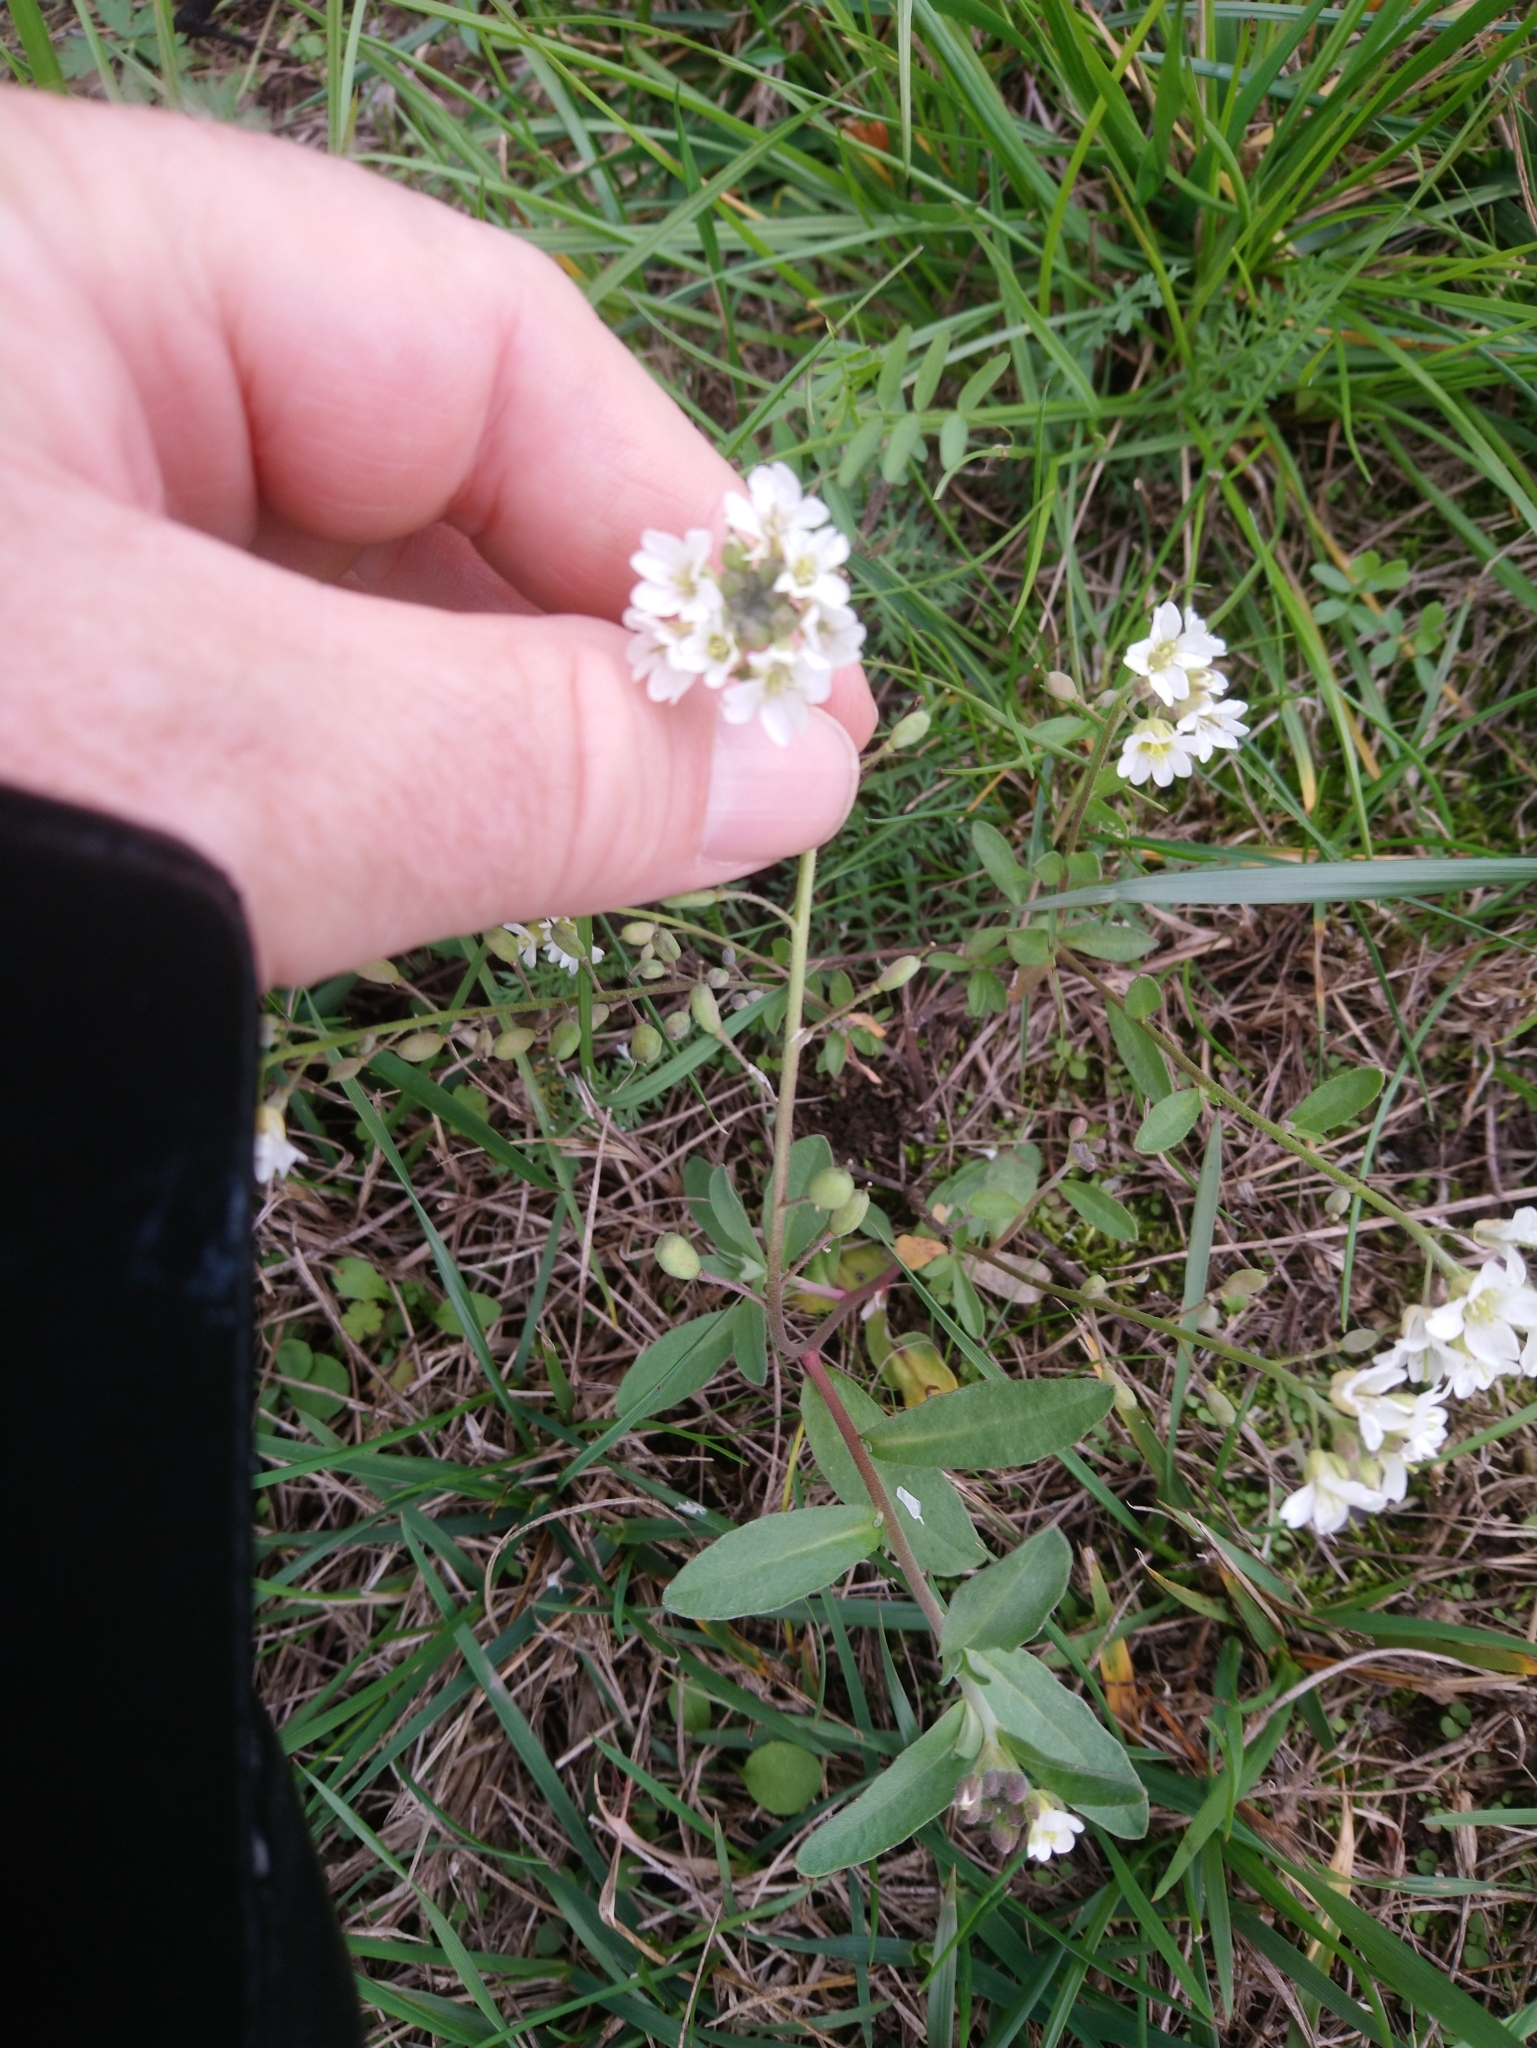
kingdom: Plantae
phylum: Tracheophyta
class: Magnoliopsida
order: Brassicales
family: Brassicaceae
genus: Berteroa
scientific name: Berteroa incana
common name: Hoary alison
